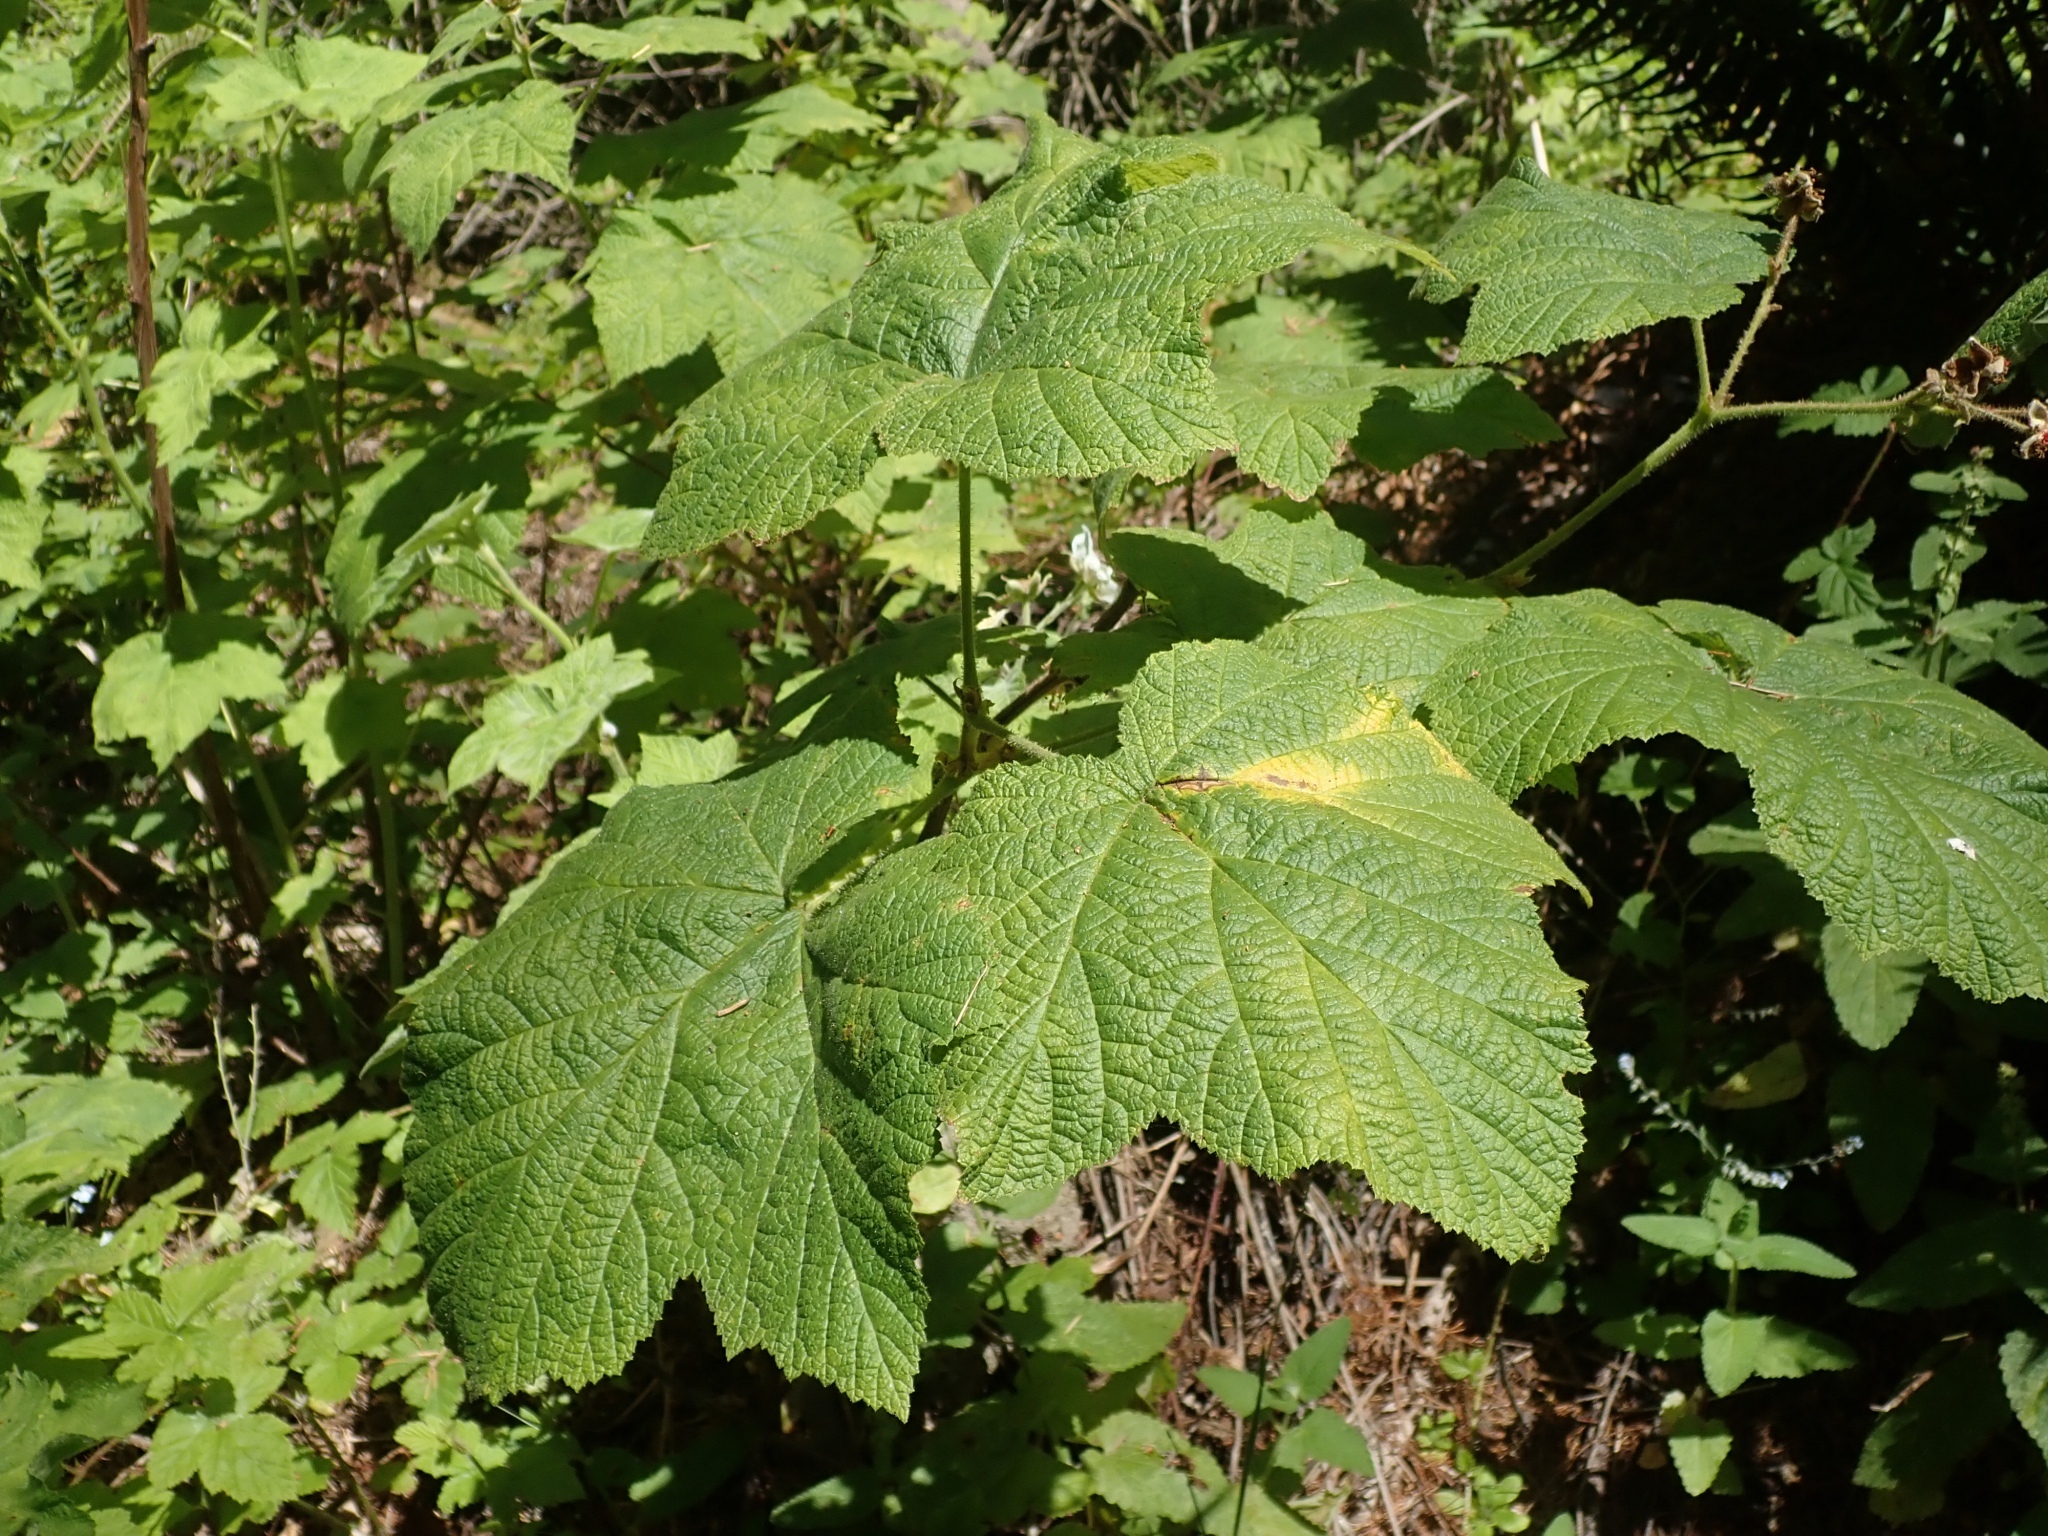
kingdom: Plantae
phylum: Tracheophyta
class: Magnoliopsida
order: Rosales
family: Rosaceae
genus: Rubus
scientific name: Rubus parviflorus
